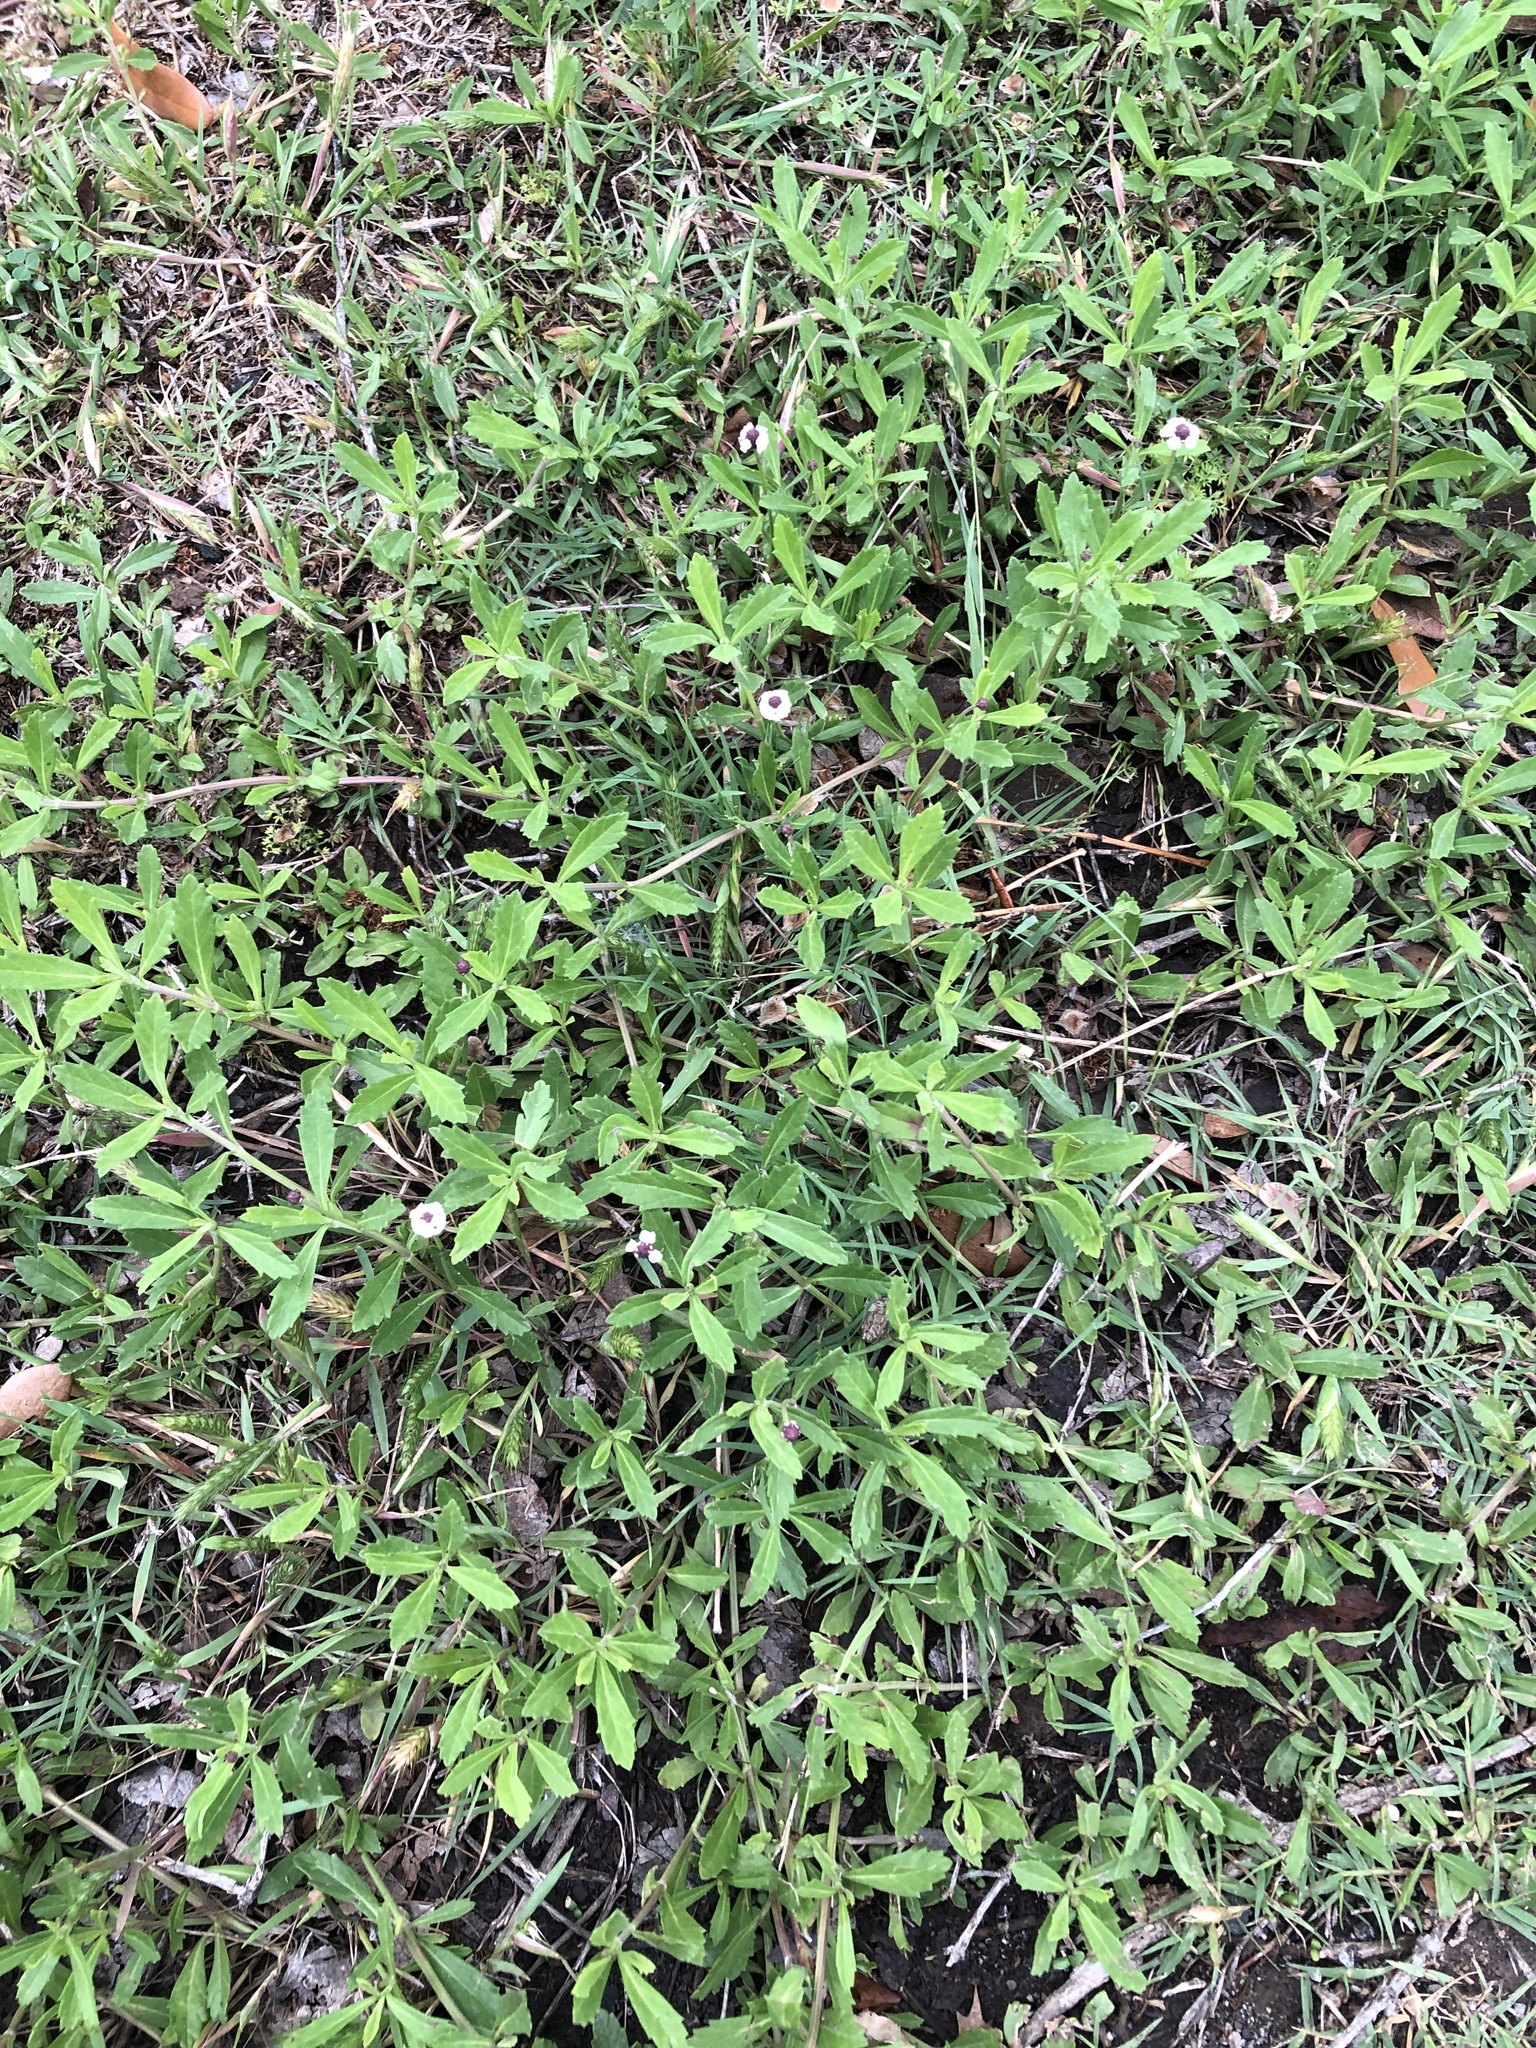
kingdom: Plantae
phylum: Tracheophyta
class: Magnoliopsida
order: Lamiales
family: Verbenaceae
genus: Phyla
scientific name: Phyla nodiflora
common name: Frogfruit
